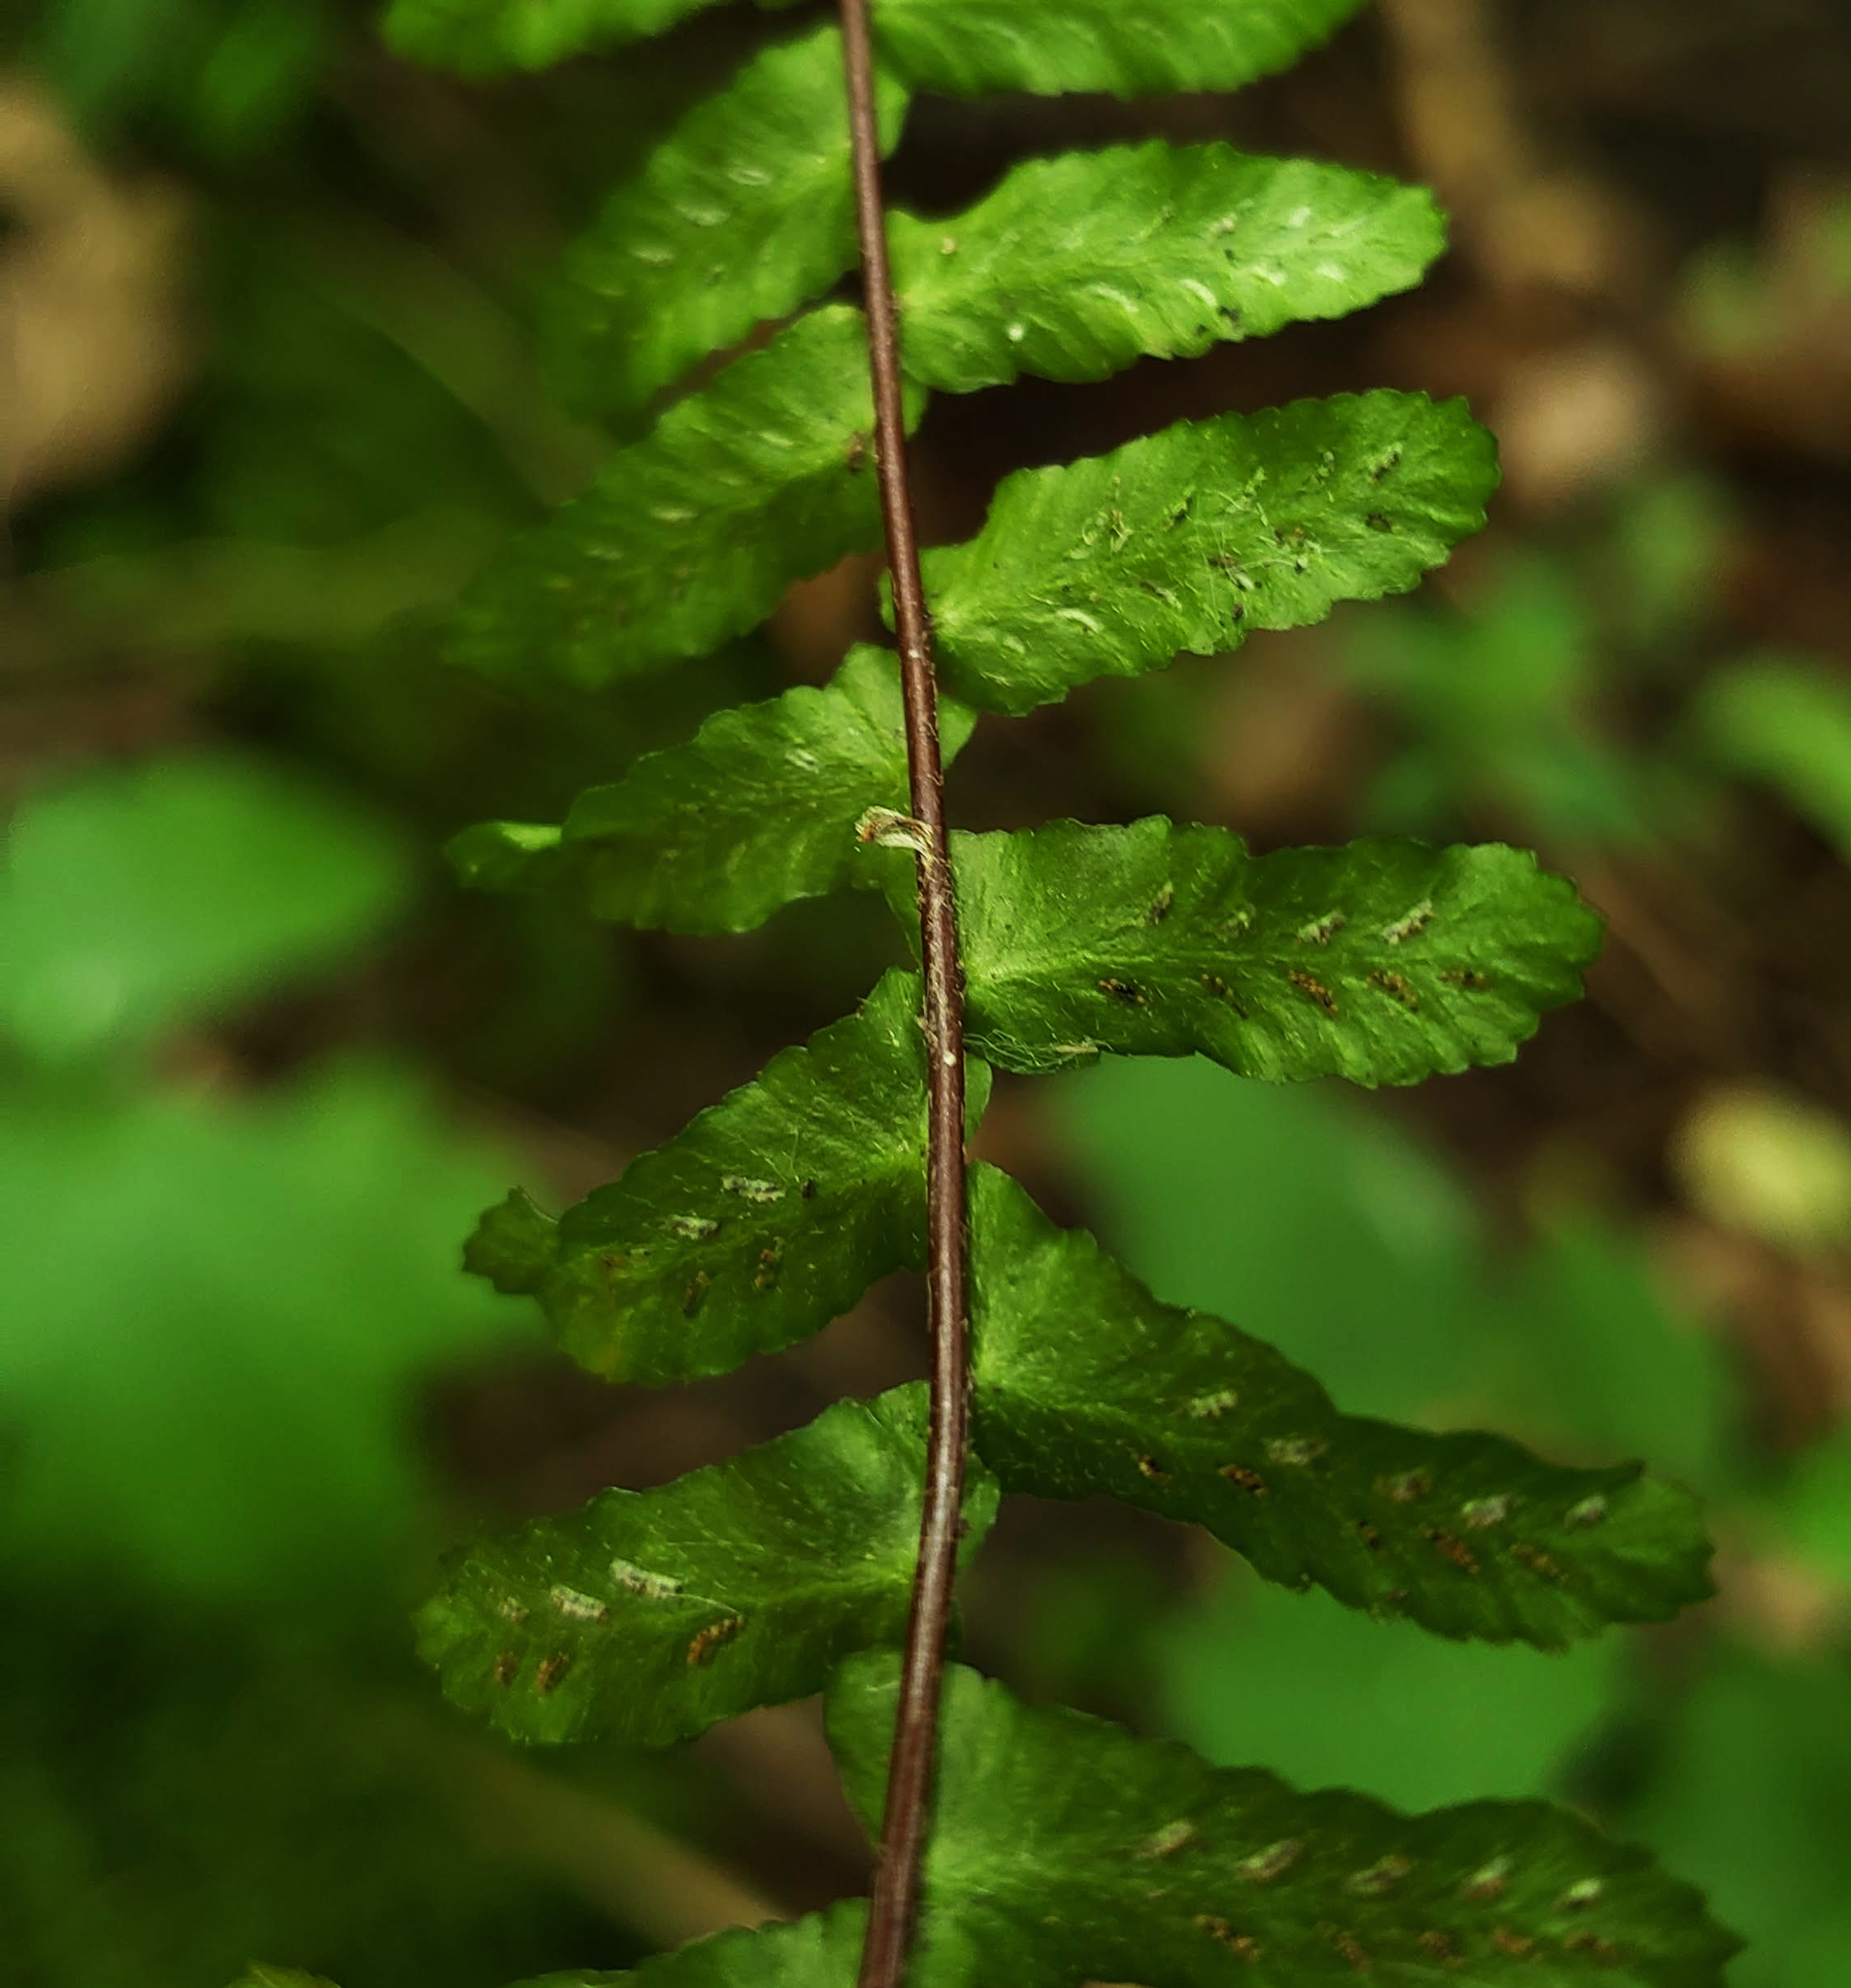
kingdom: Plantae
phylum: Tracheophyta
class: Polypodiopsida
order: Polypodiales
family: Aspleniaceae
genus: Asplenium
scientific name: Asplenium platyneuron
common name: Ebony spleenwort
